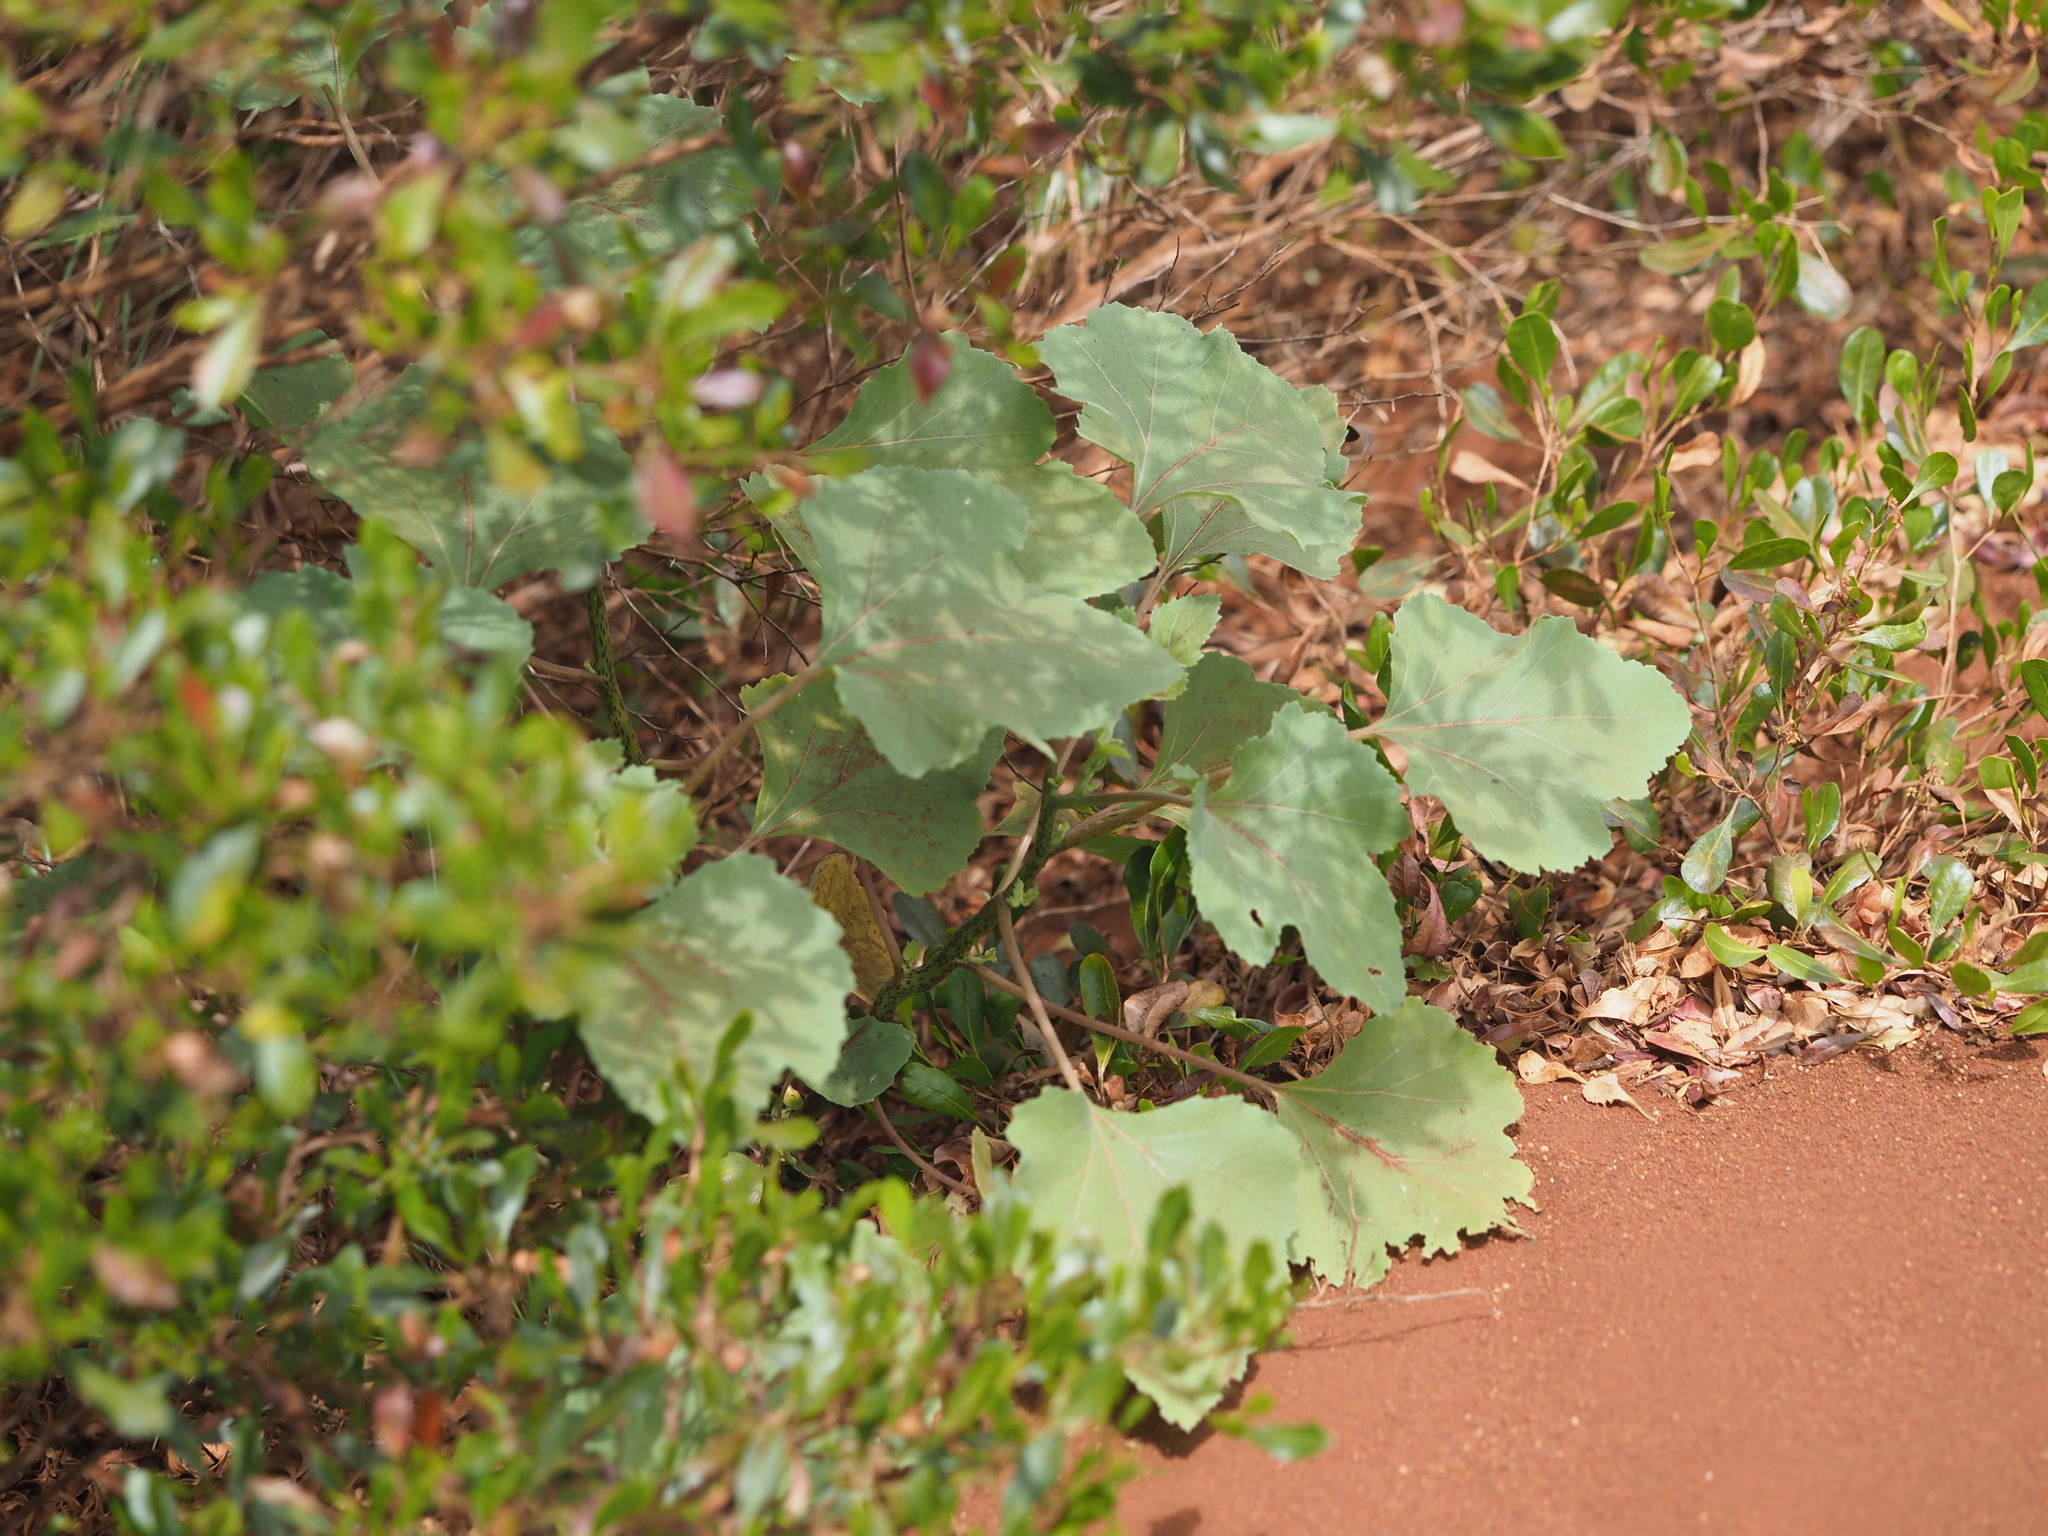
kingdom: Plantae
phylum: Tracheophyta
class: Magnoliopsida
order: Asterales
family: Asteraceae
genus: Xanthium
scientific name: Xanthium strumarium
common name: Rough cocklebur
